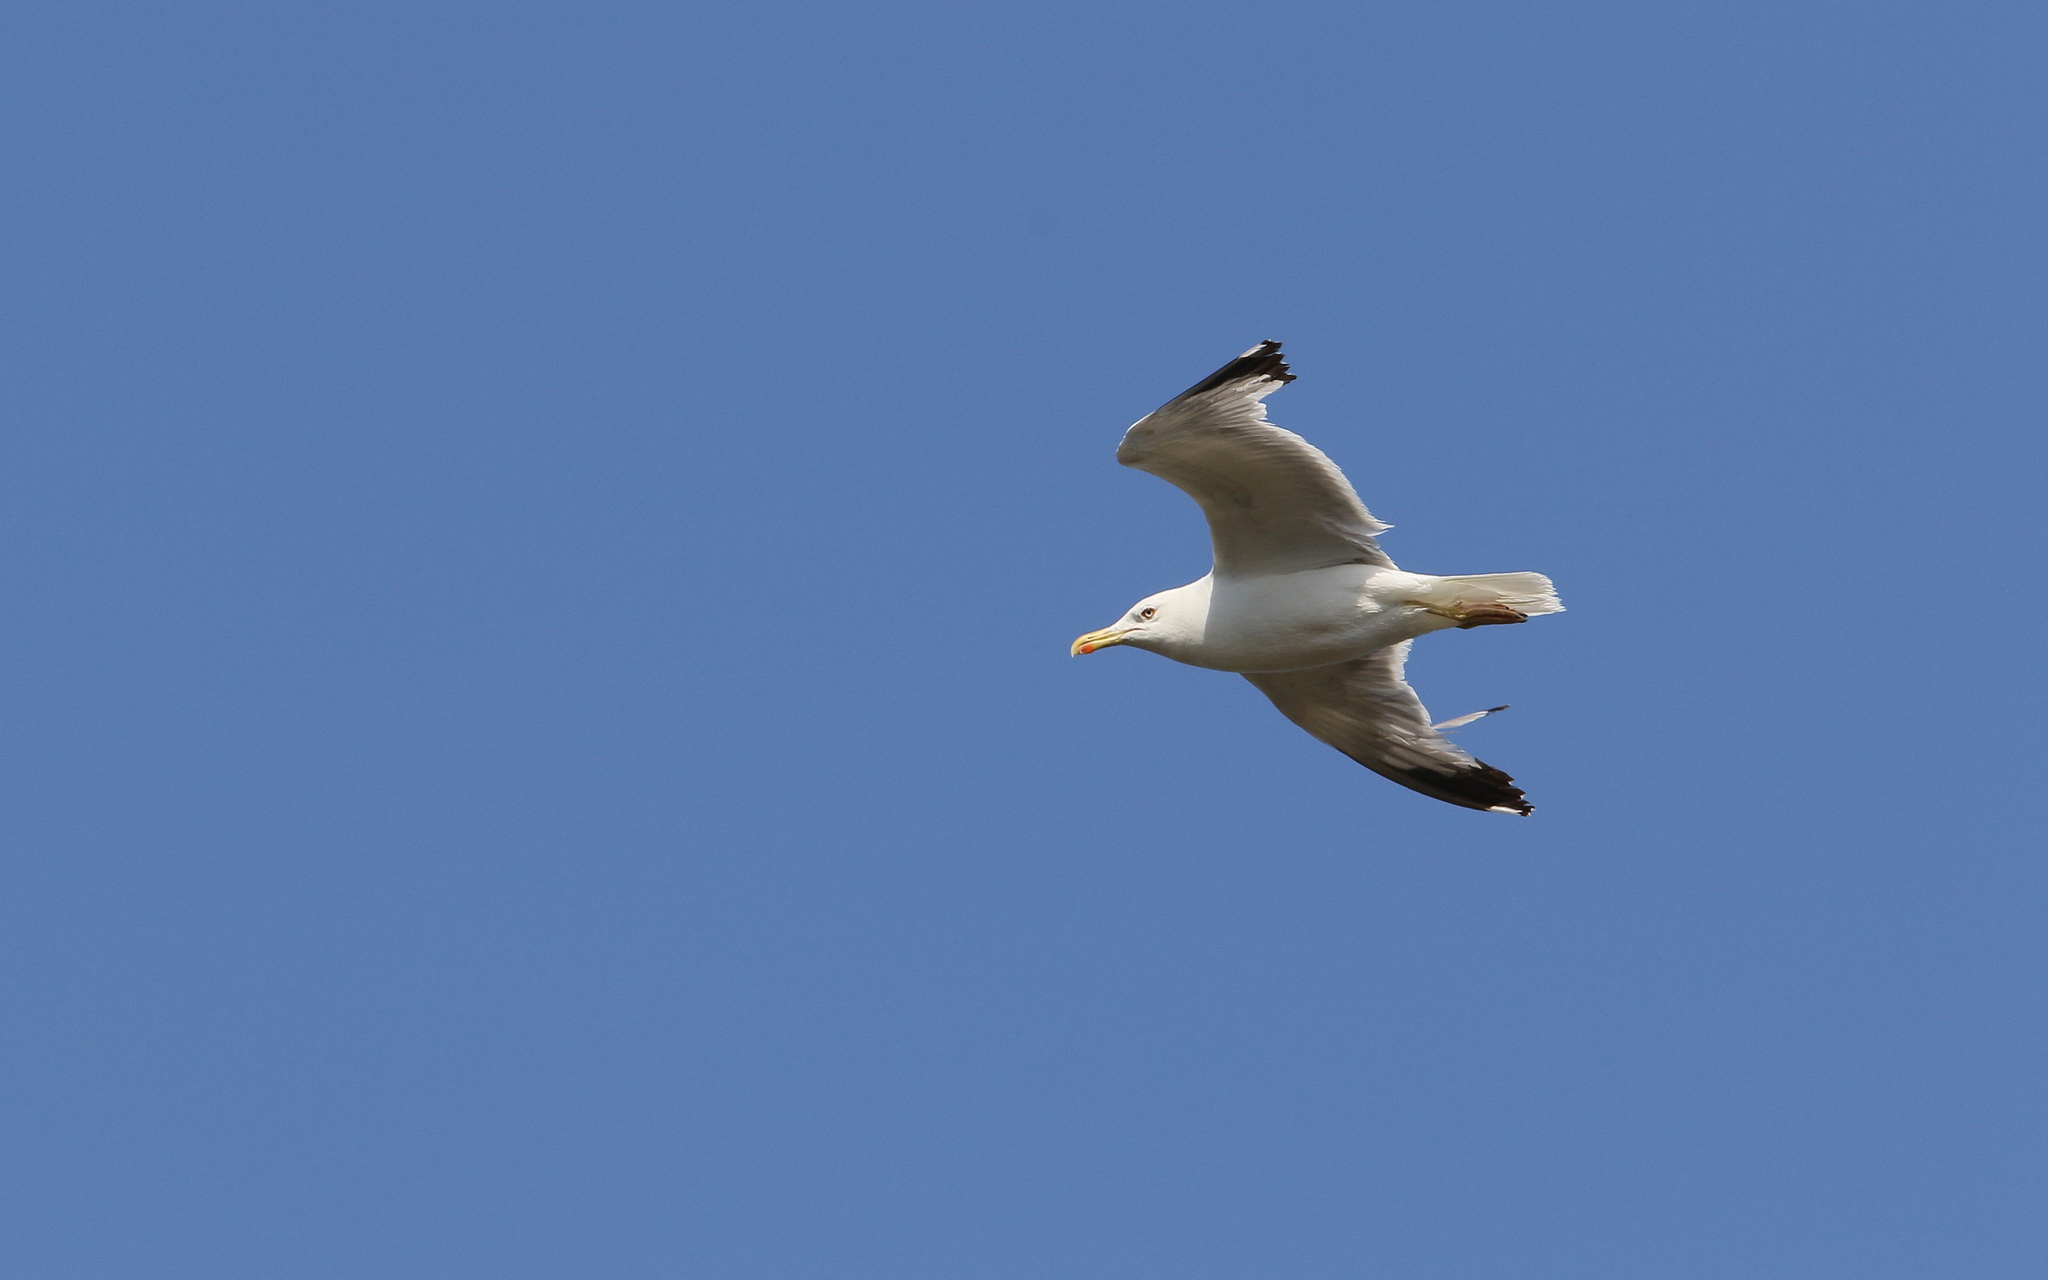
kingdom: Animalia
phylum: Chordata
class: Aves
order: Charadriiformes
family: Laridae
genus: Larus
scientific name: Larus michahellis
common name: Yellow-legged gull
